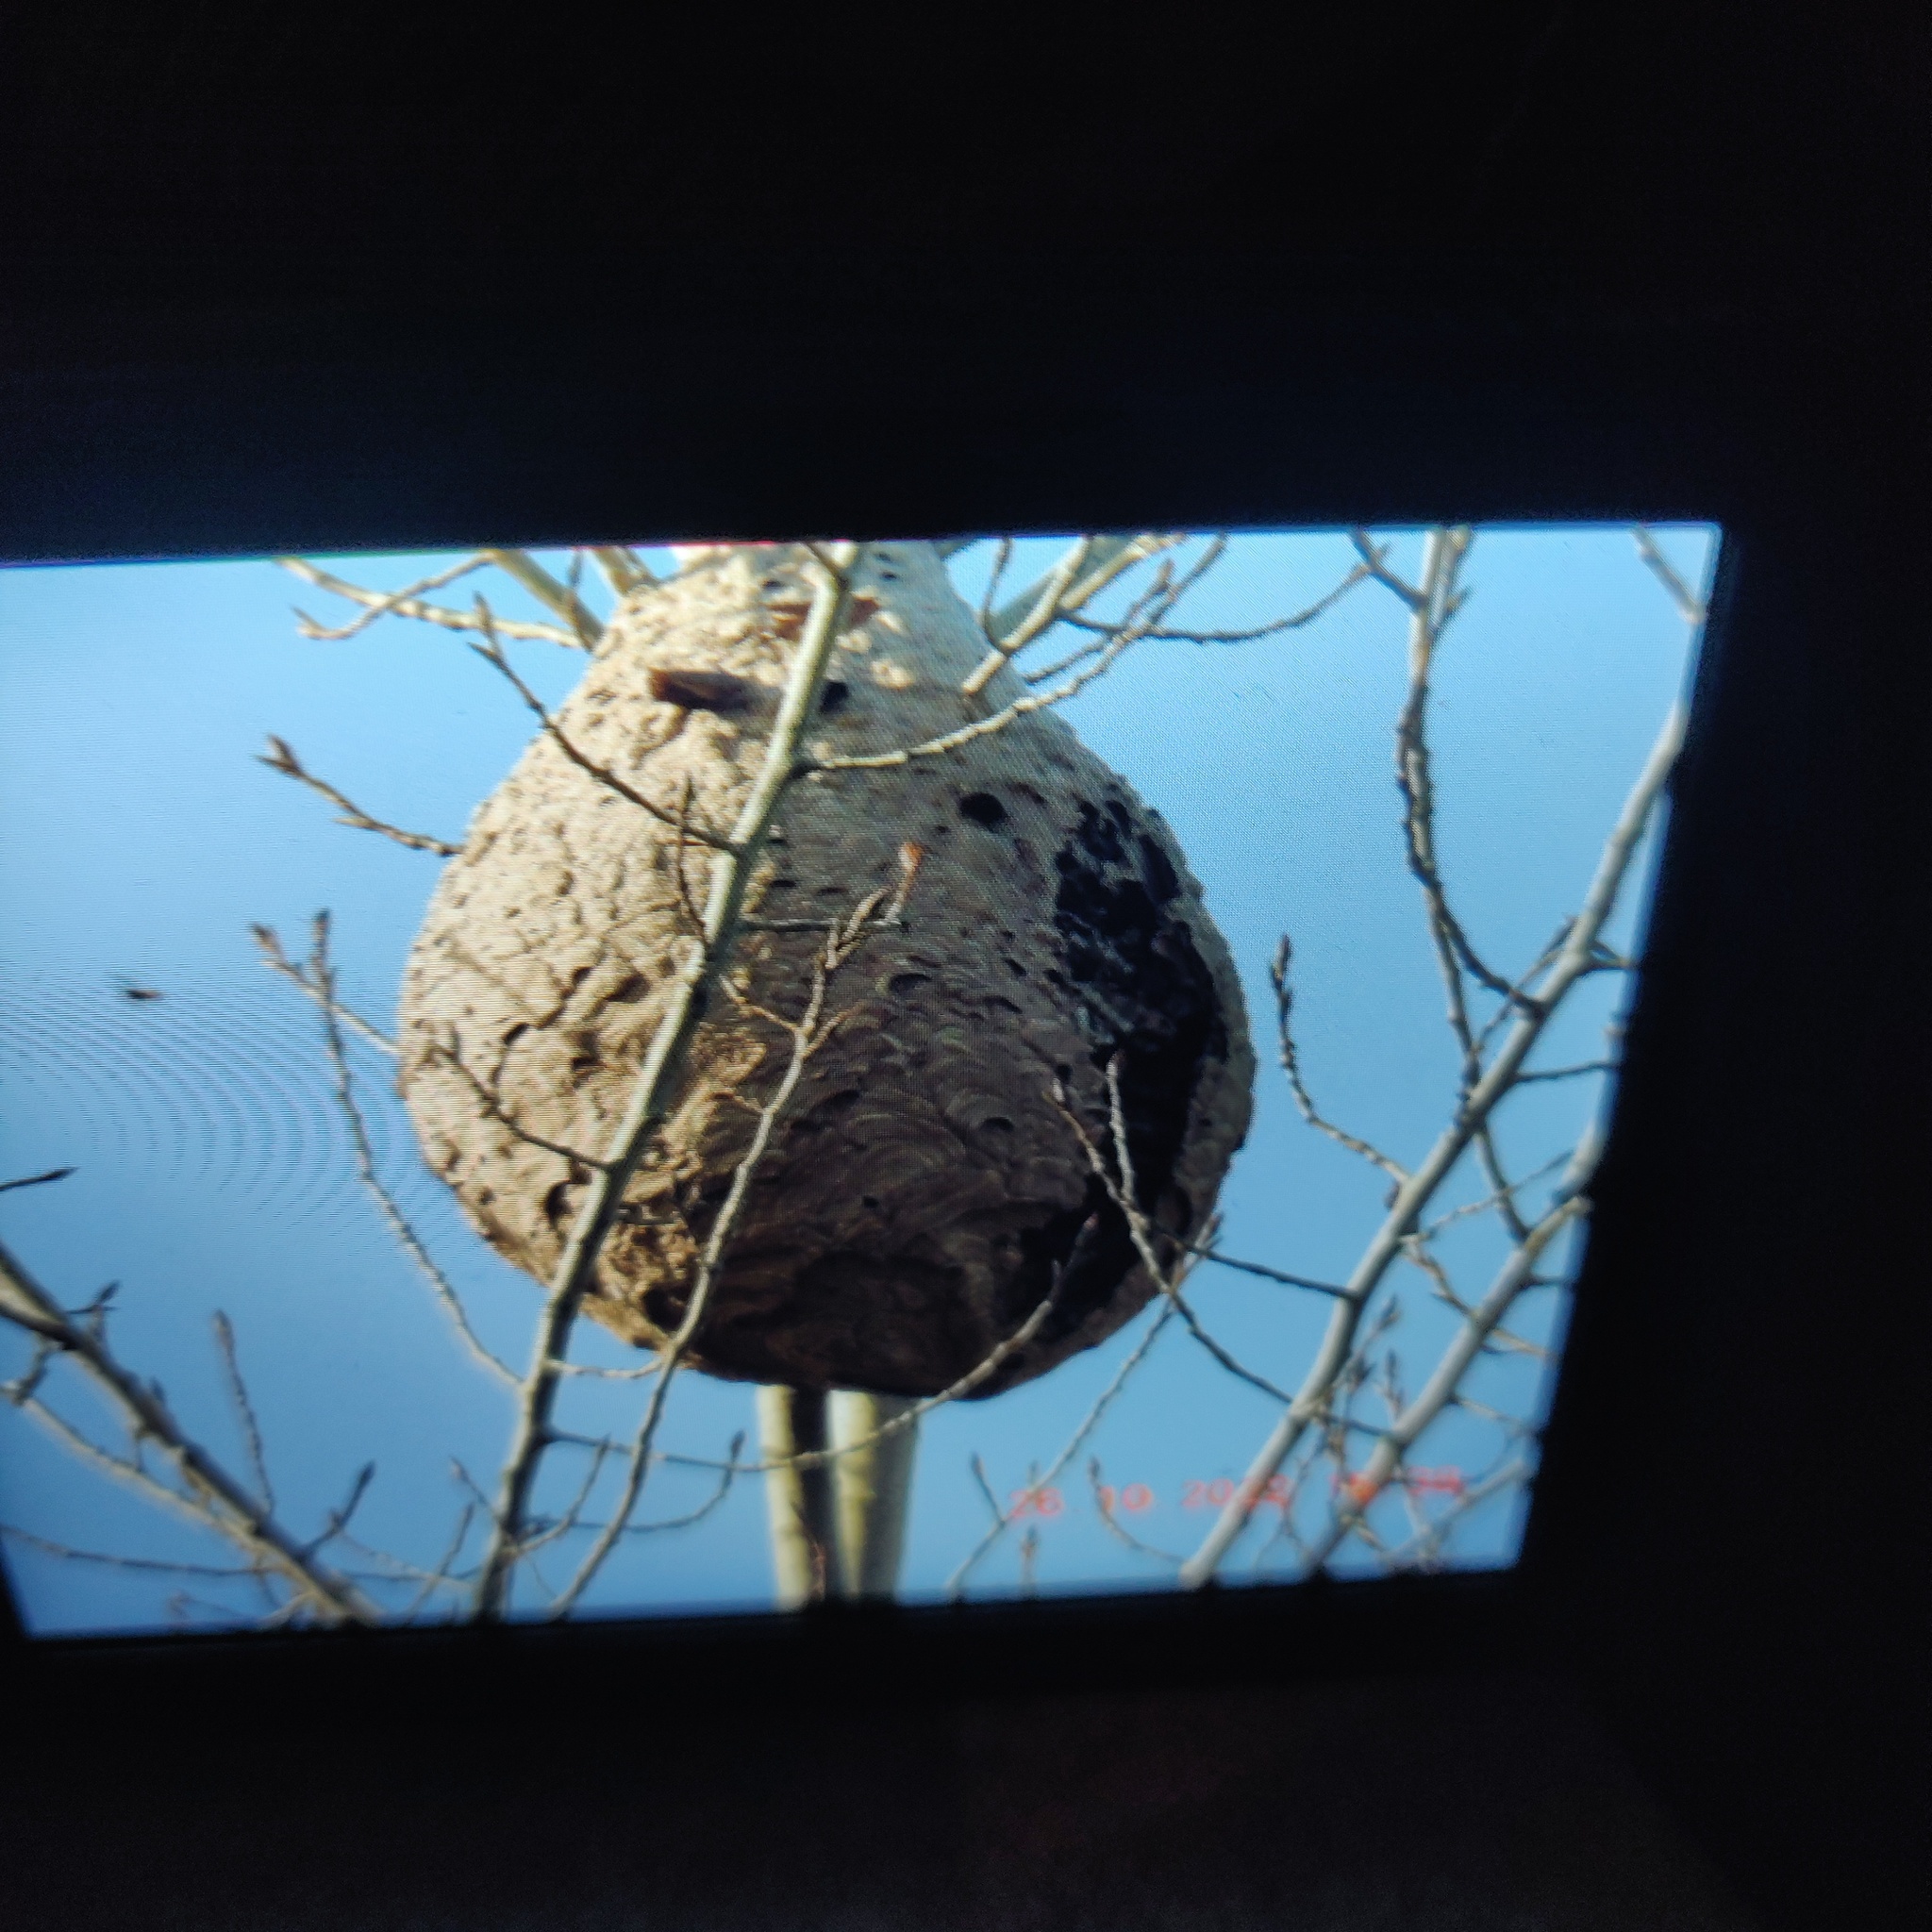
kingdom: Animalia
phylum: Arthropoda
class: Insecta
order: Hymenoptera
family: Vespidae
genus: Vespa
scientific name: Vespa velutina
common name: Asian hornet
